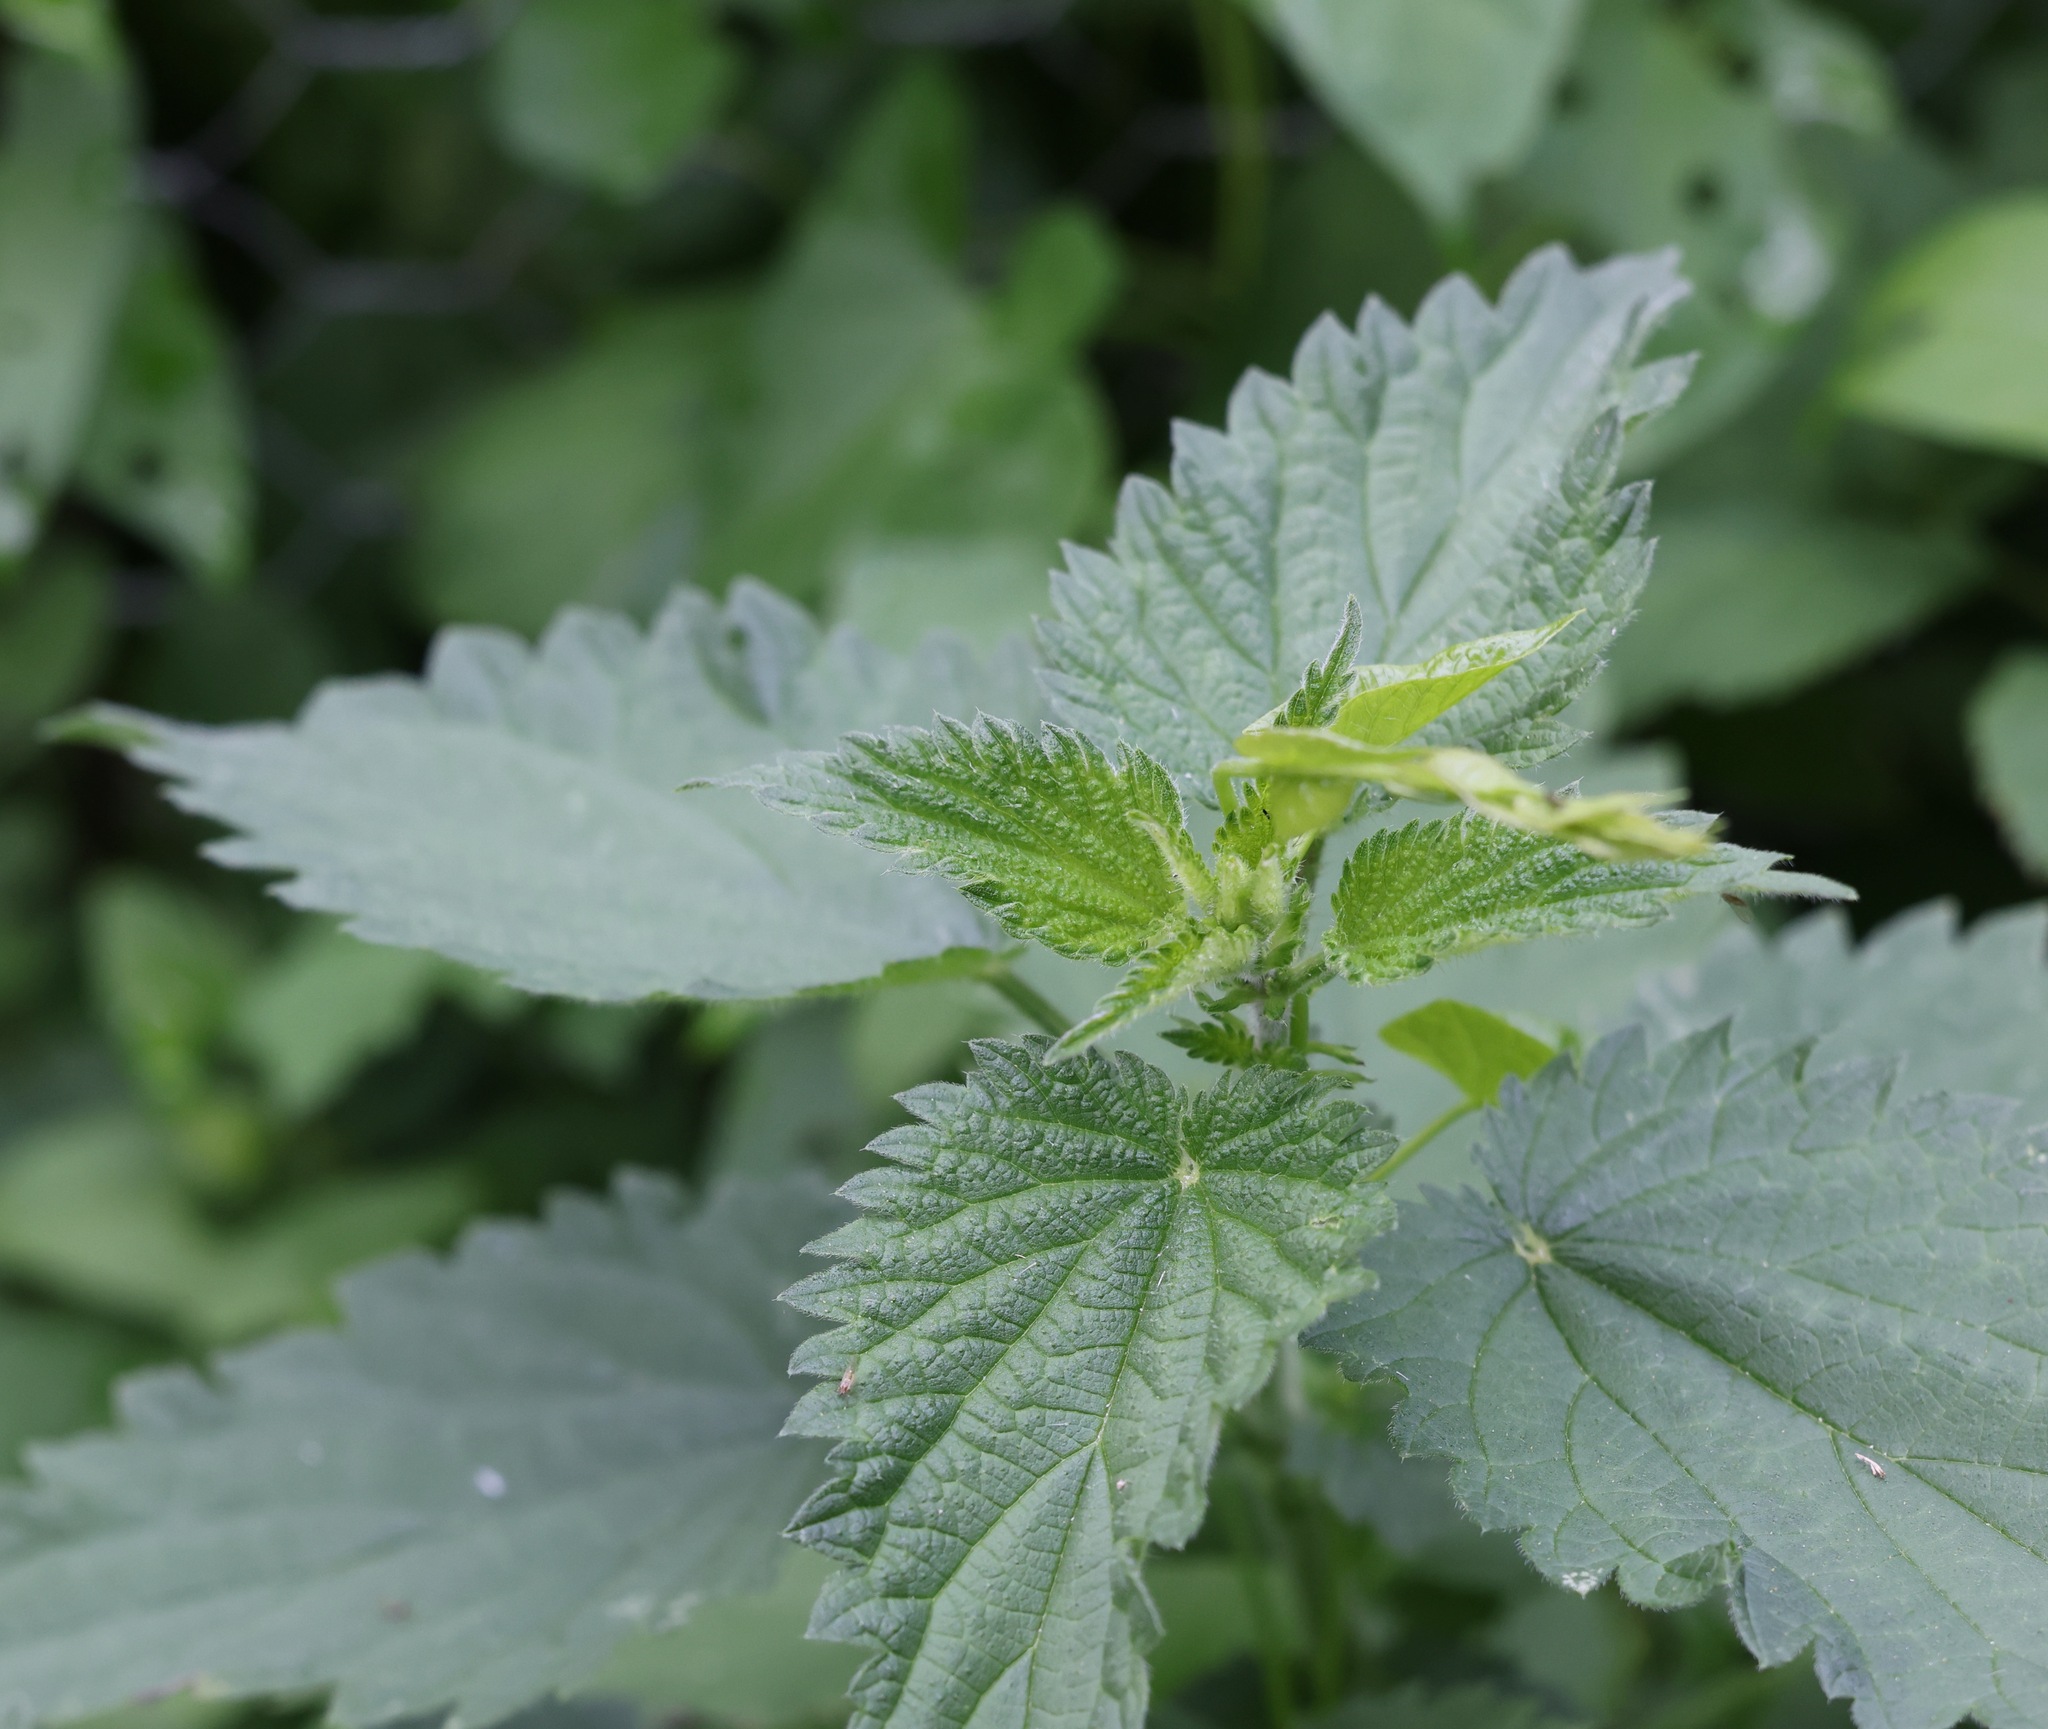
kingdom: Plantae
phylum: Tracheophyta
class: Magnoliopsida
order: Rosales
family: Urticaceae
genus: Urtica
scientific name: Urtica dioica
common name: Common nettle
